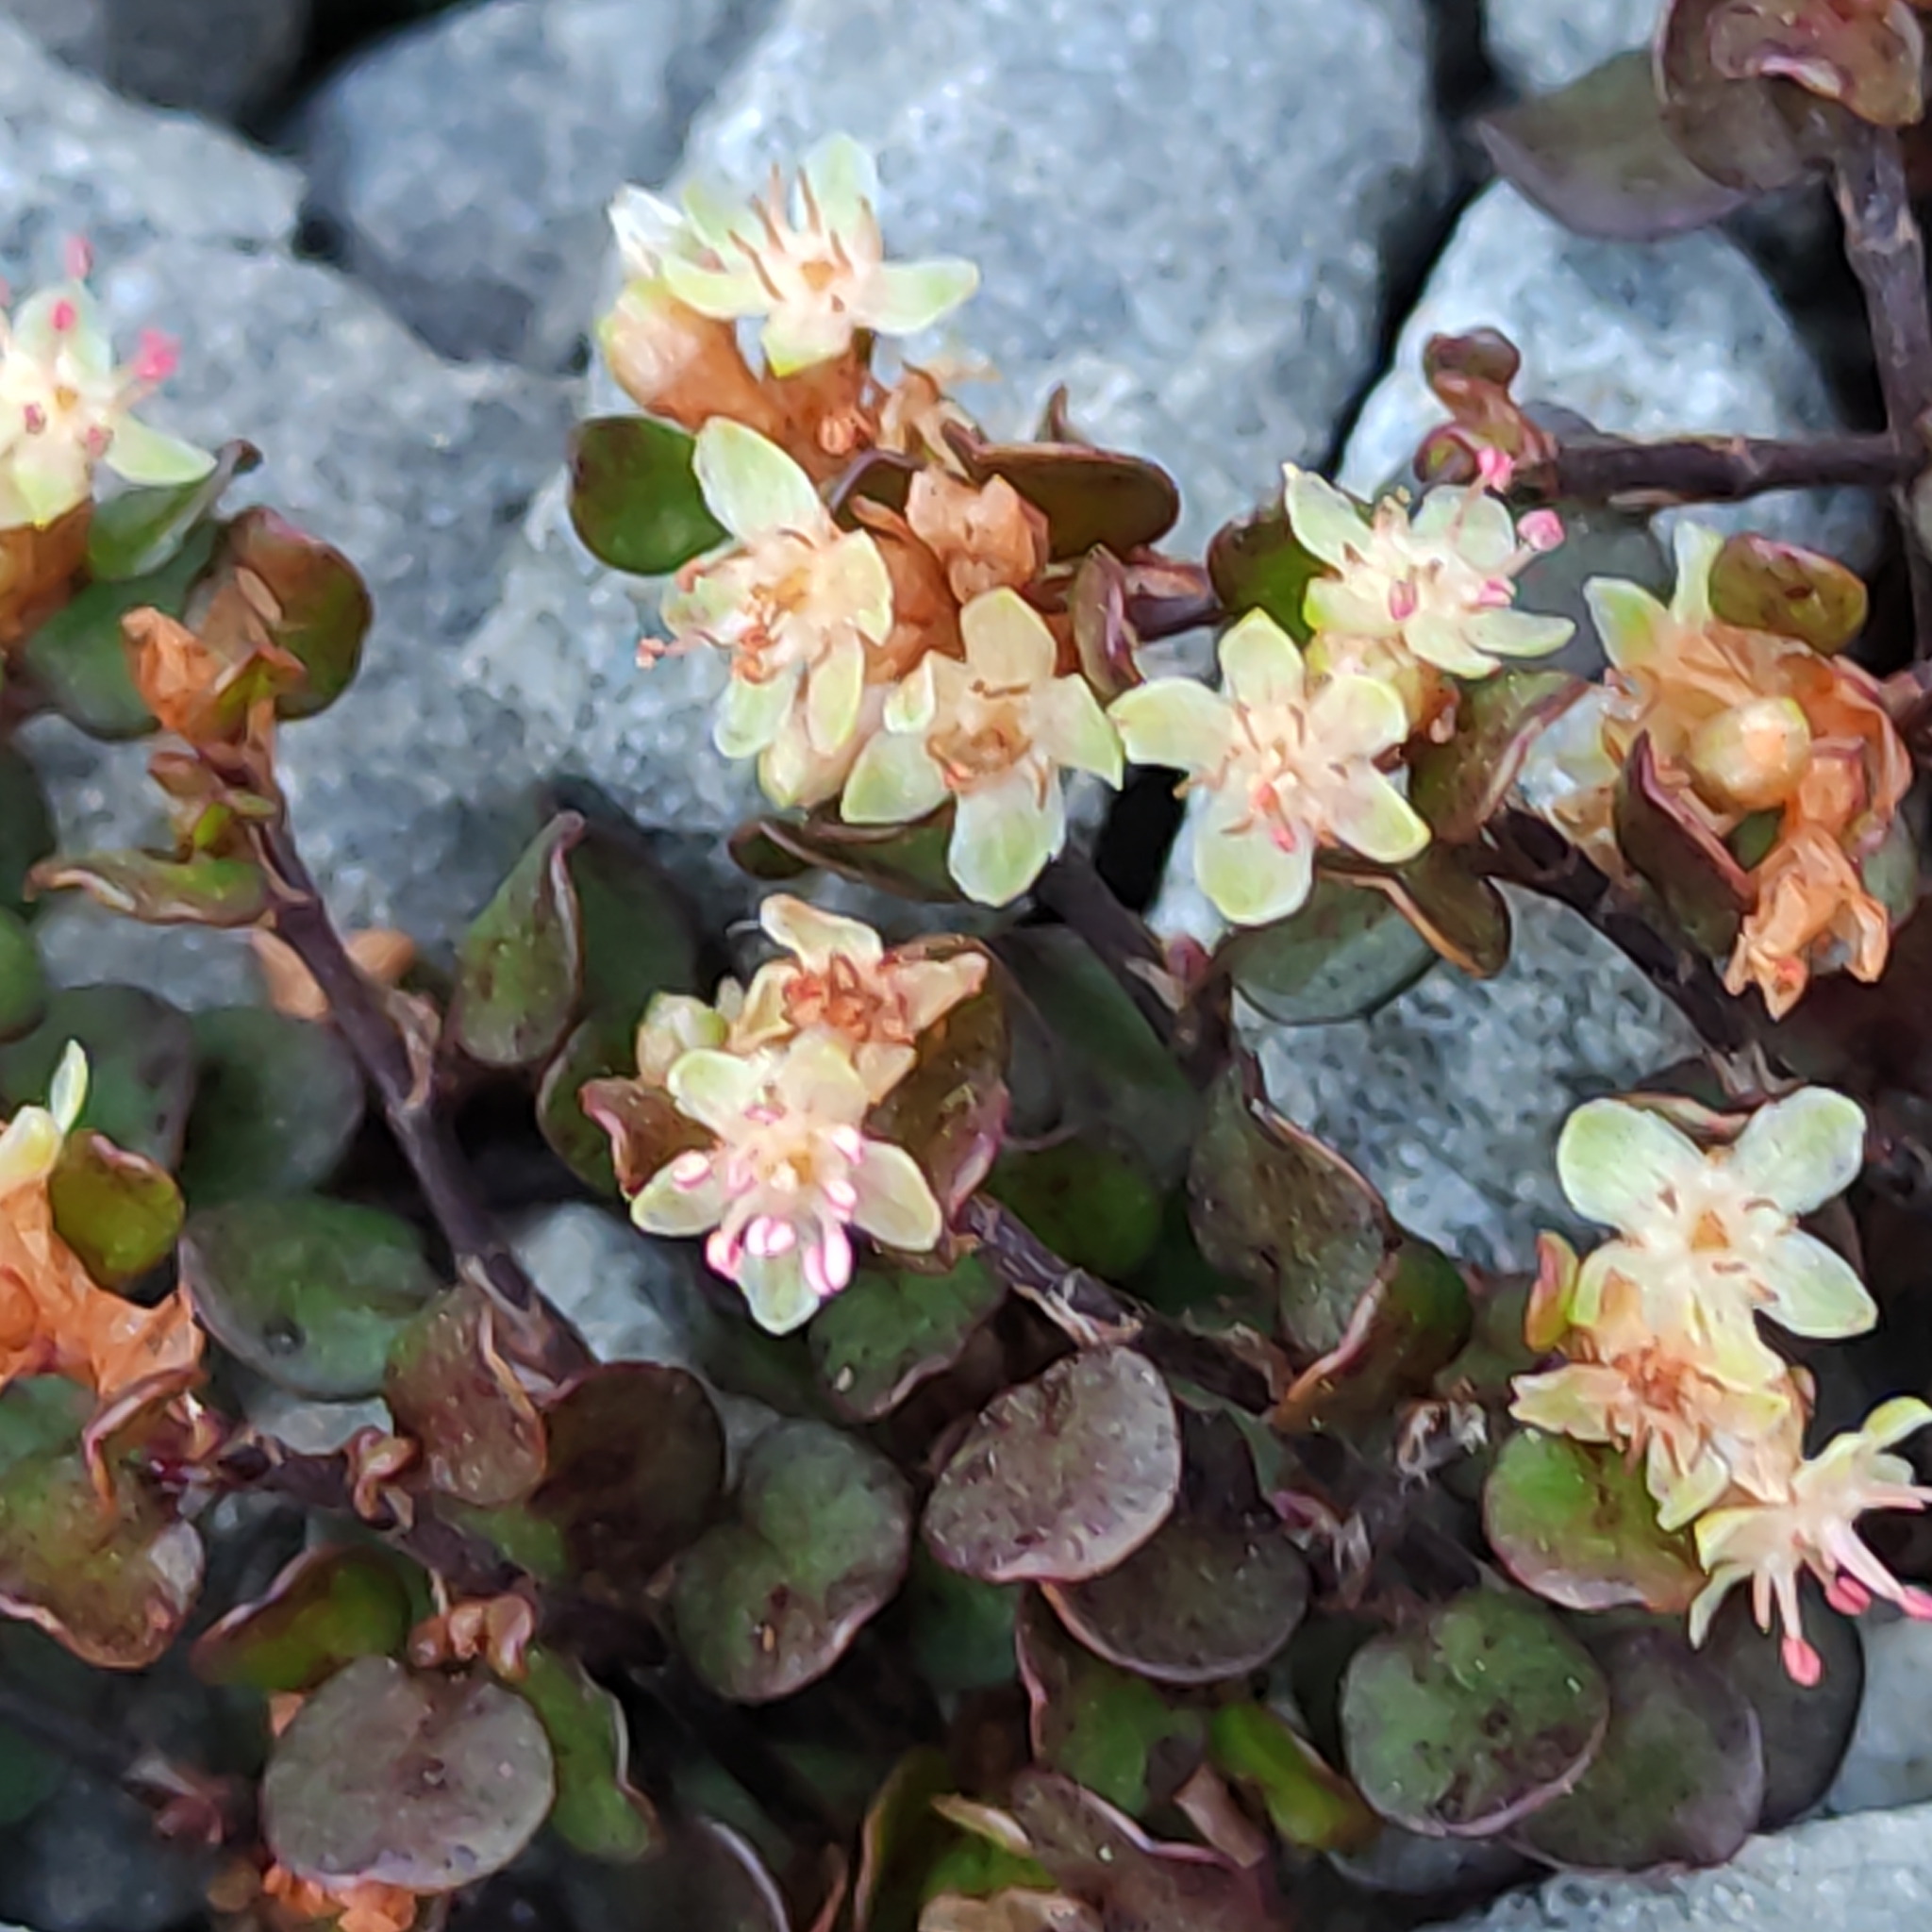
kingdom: Plantae
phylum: Tracheophyta
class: Magnoliopsida
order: Caryophyllales
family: Polygonaceae
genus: Muehlenbeckia
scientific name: Muehlenbeckia axillaris
